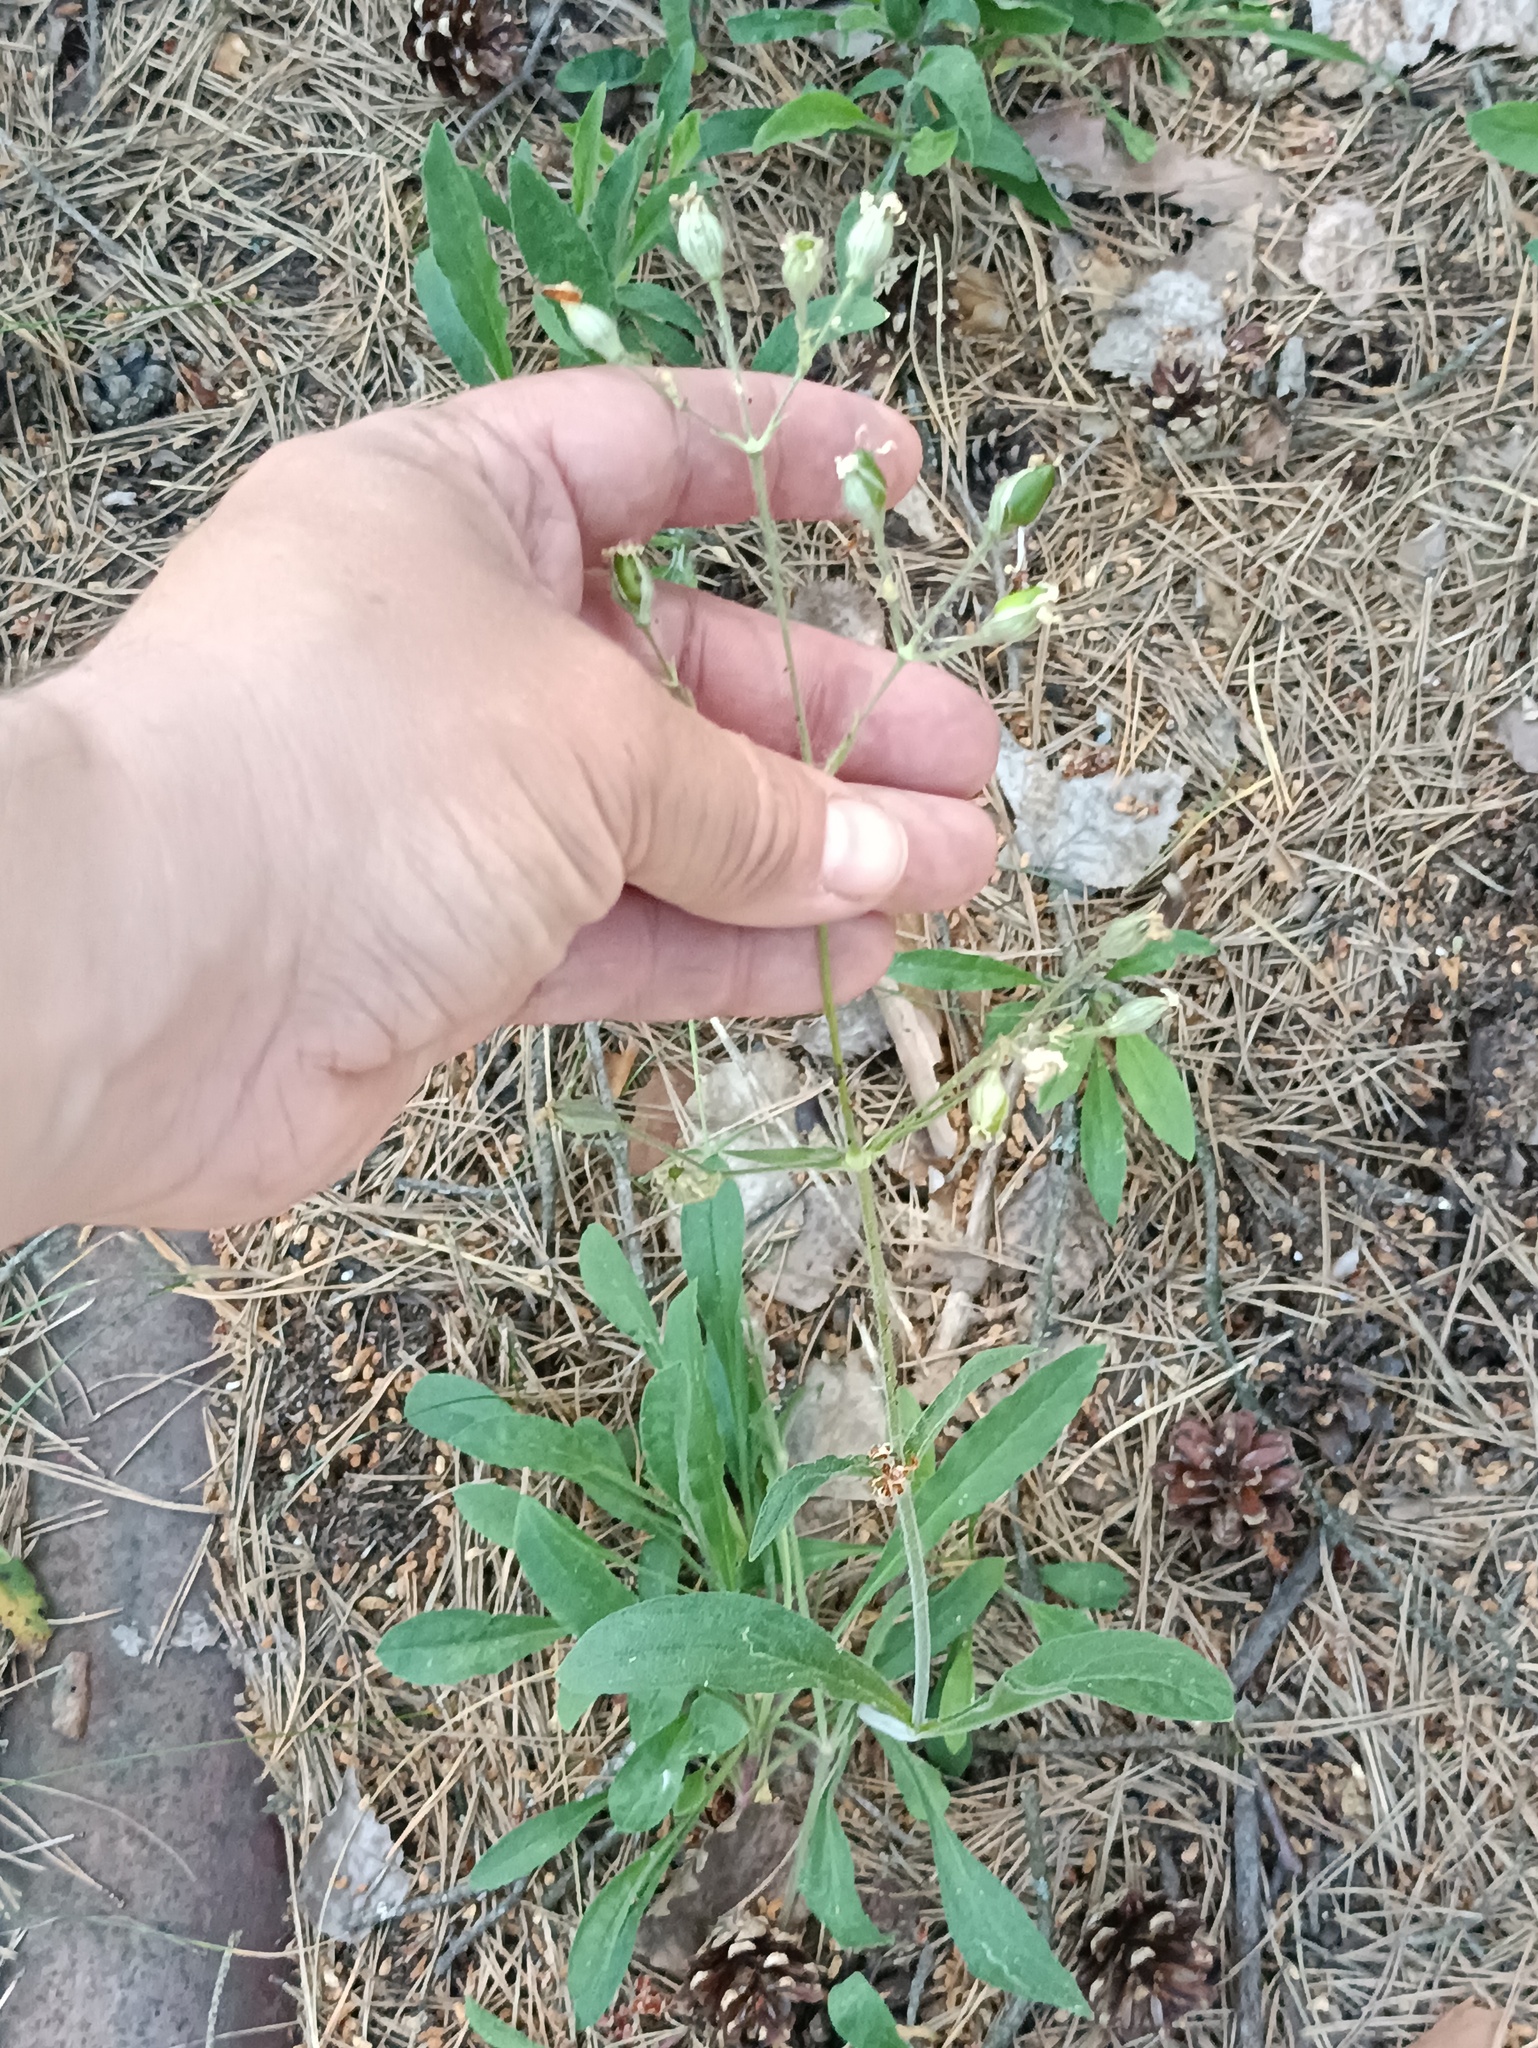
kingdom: Plantae
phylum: Tracheophyta
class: Magnoliopsida
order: Caryophyllales
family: Caryophyllaceae
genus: Silene
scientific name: Silene nutans
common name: Nottingham catchfly
